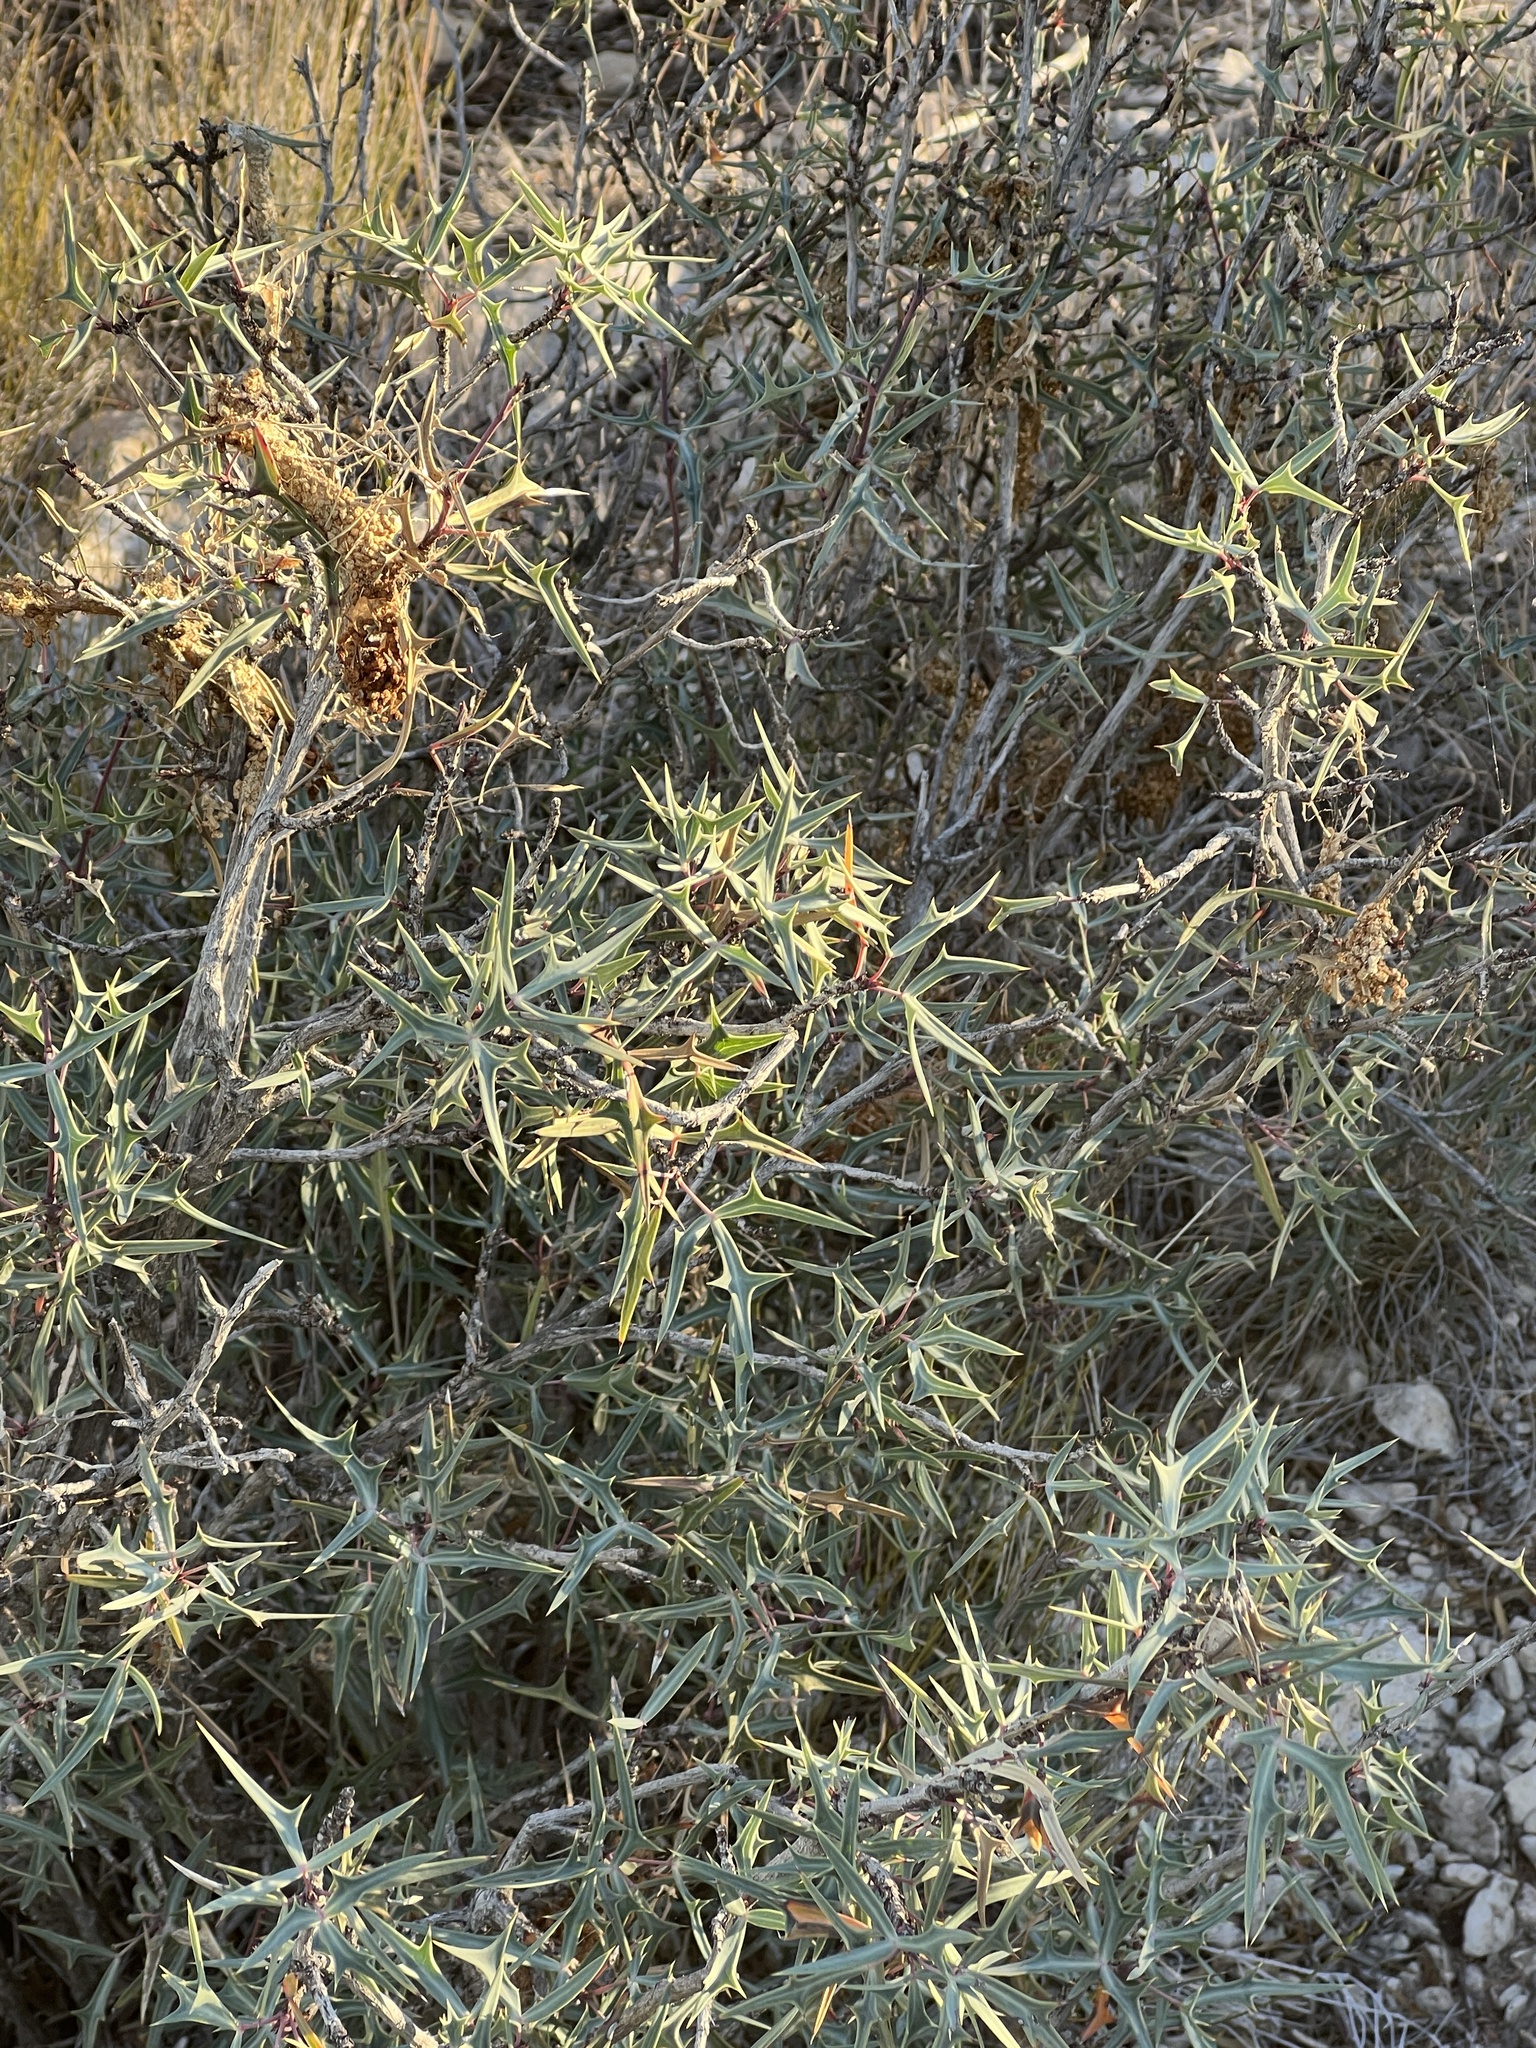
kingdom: Plantae
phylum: Tracheophyta
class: Magnoliopsida
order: Ranunculales
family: Berberidaceae
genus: Alloberberis
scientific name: Alloberberis trifoliolata
